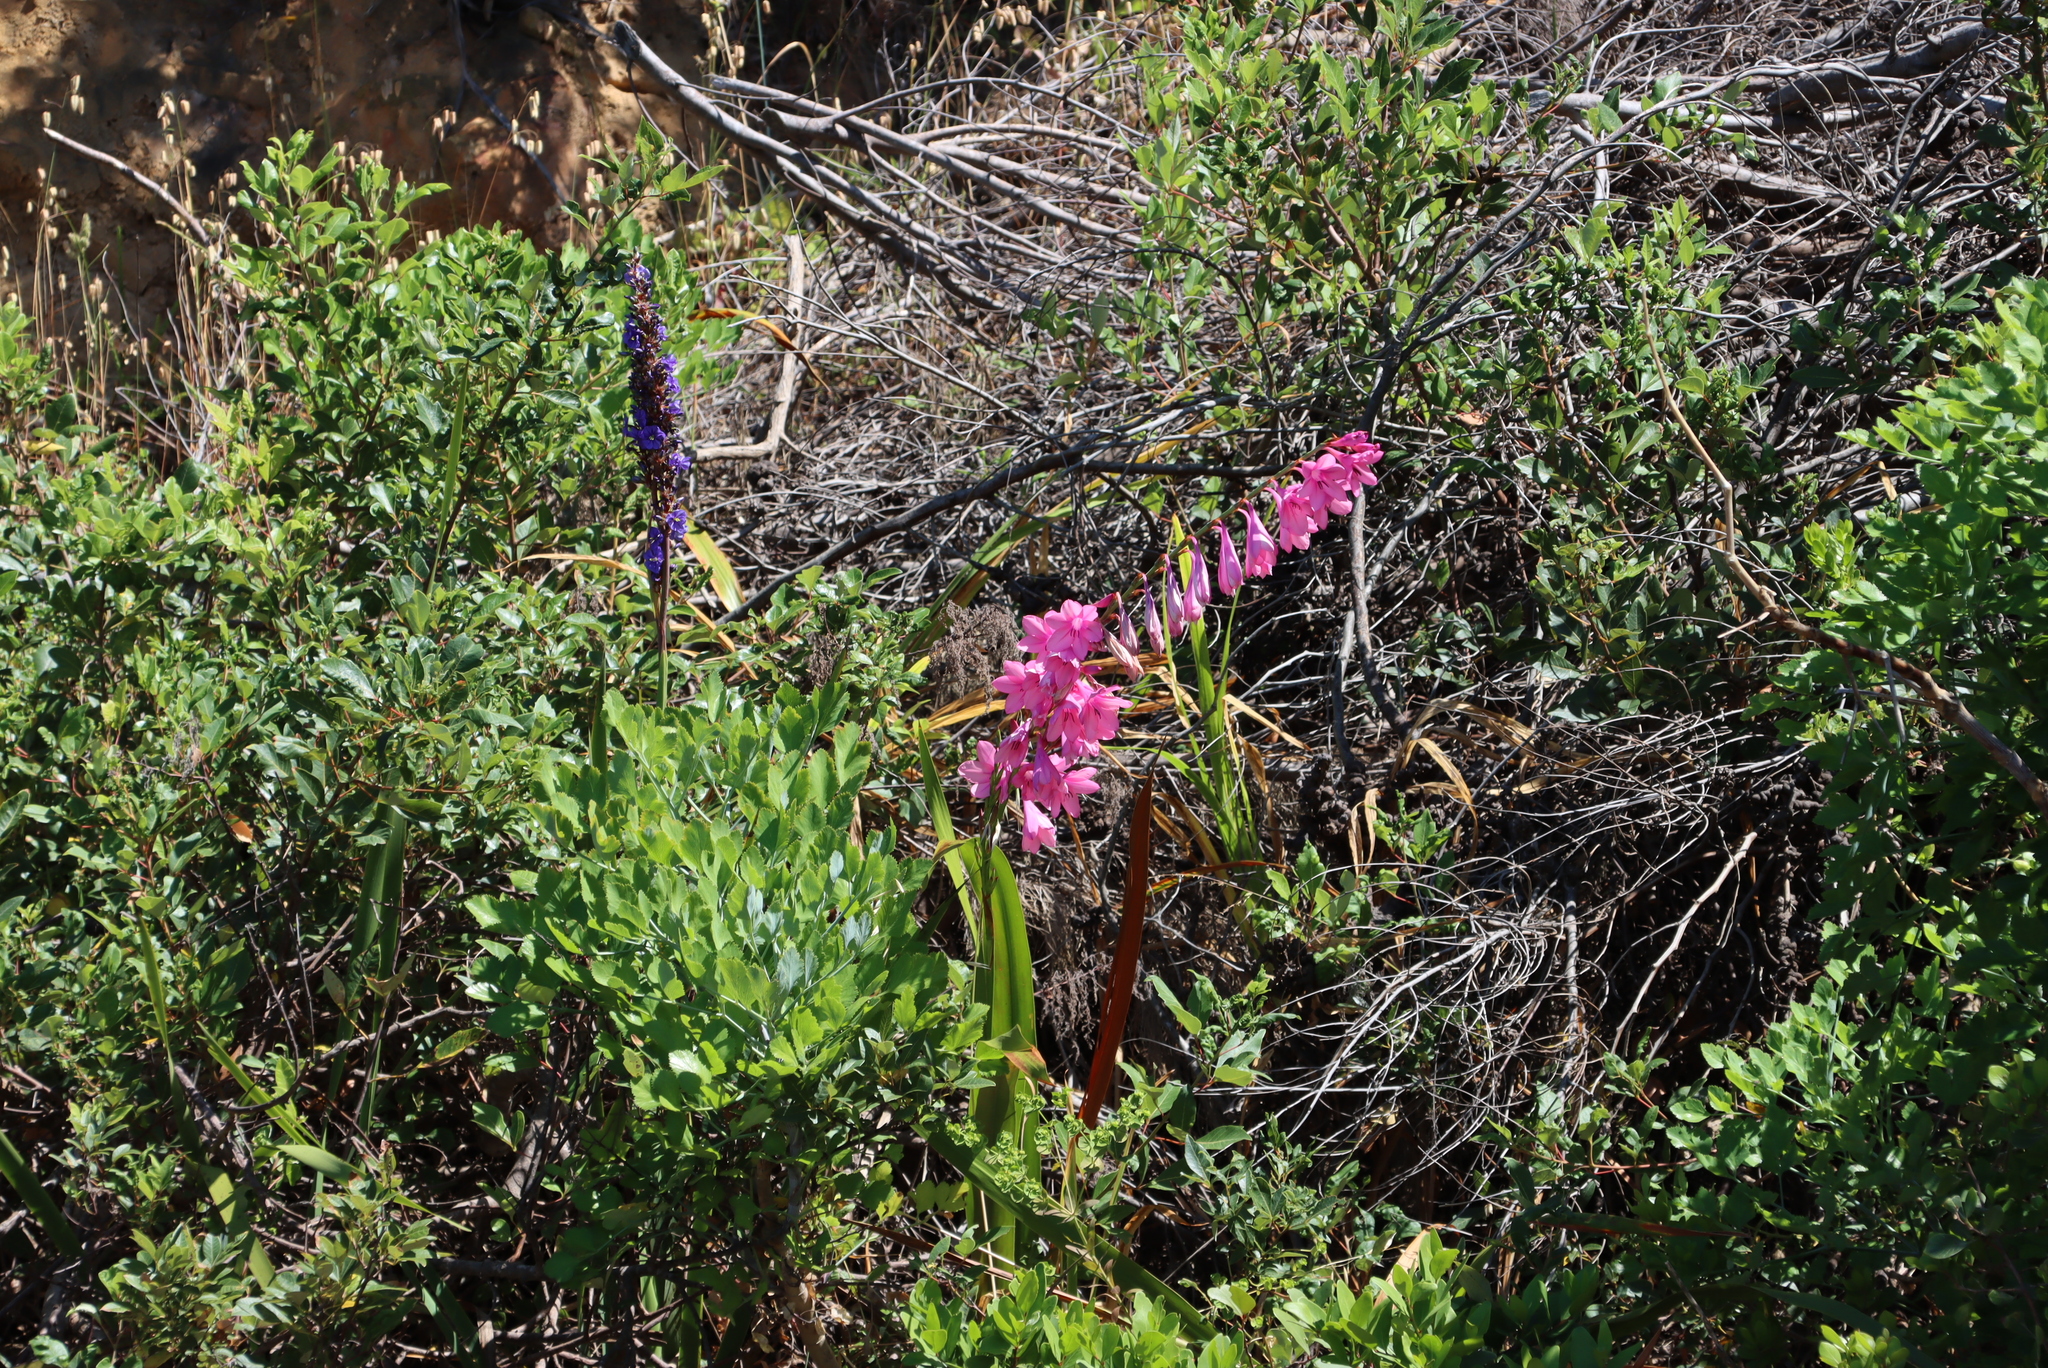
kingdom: Plantae
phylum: Tracheophyta
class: Liliopsida
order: Asparagales
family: Iridaceae
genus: Watsonia
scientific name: Watsonia borbonica
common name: Bugle-lily
